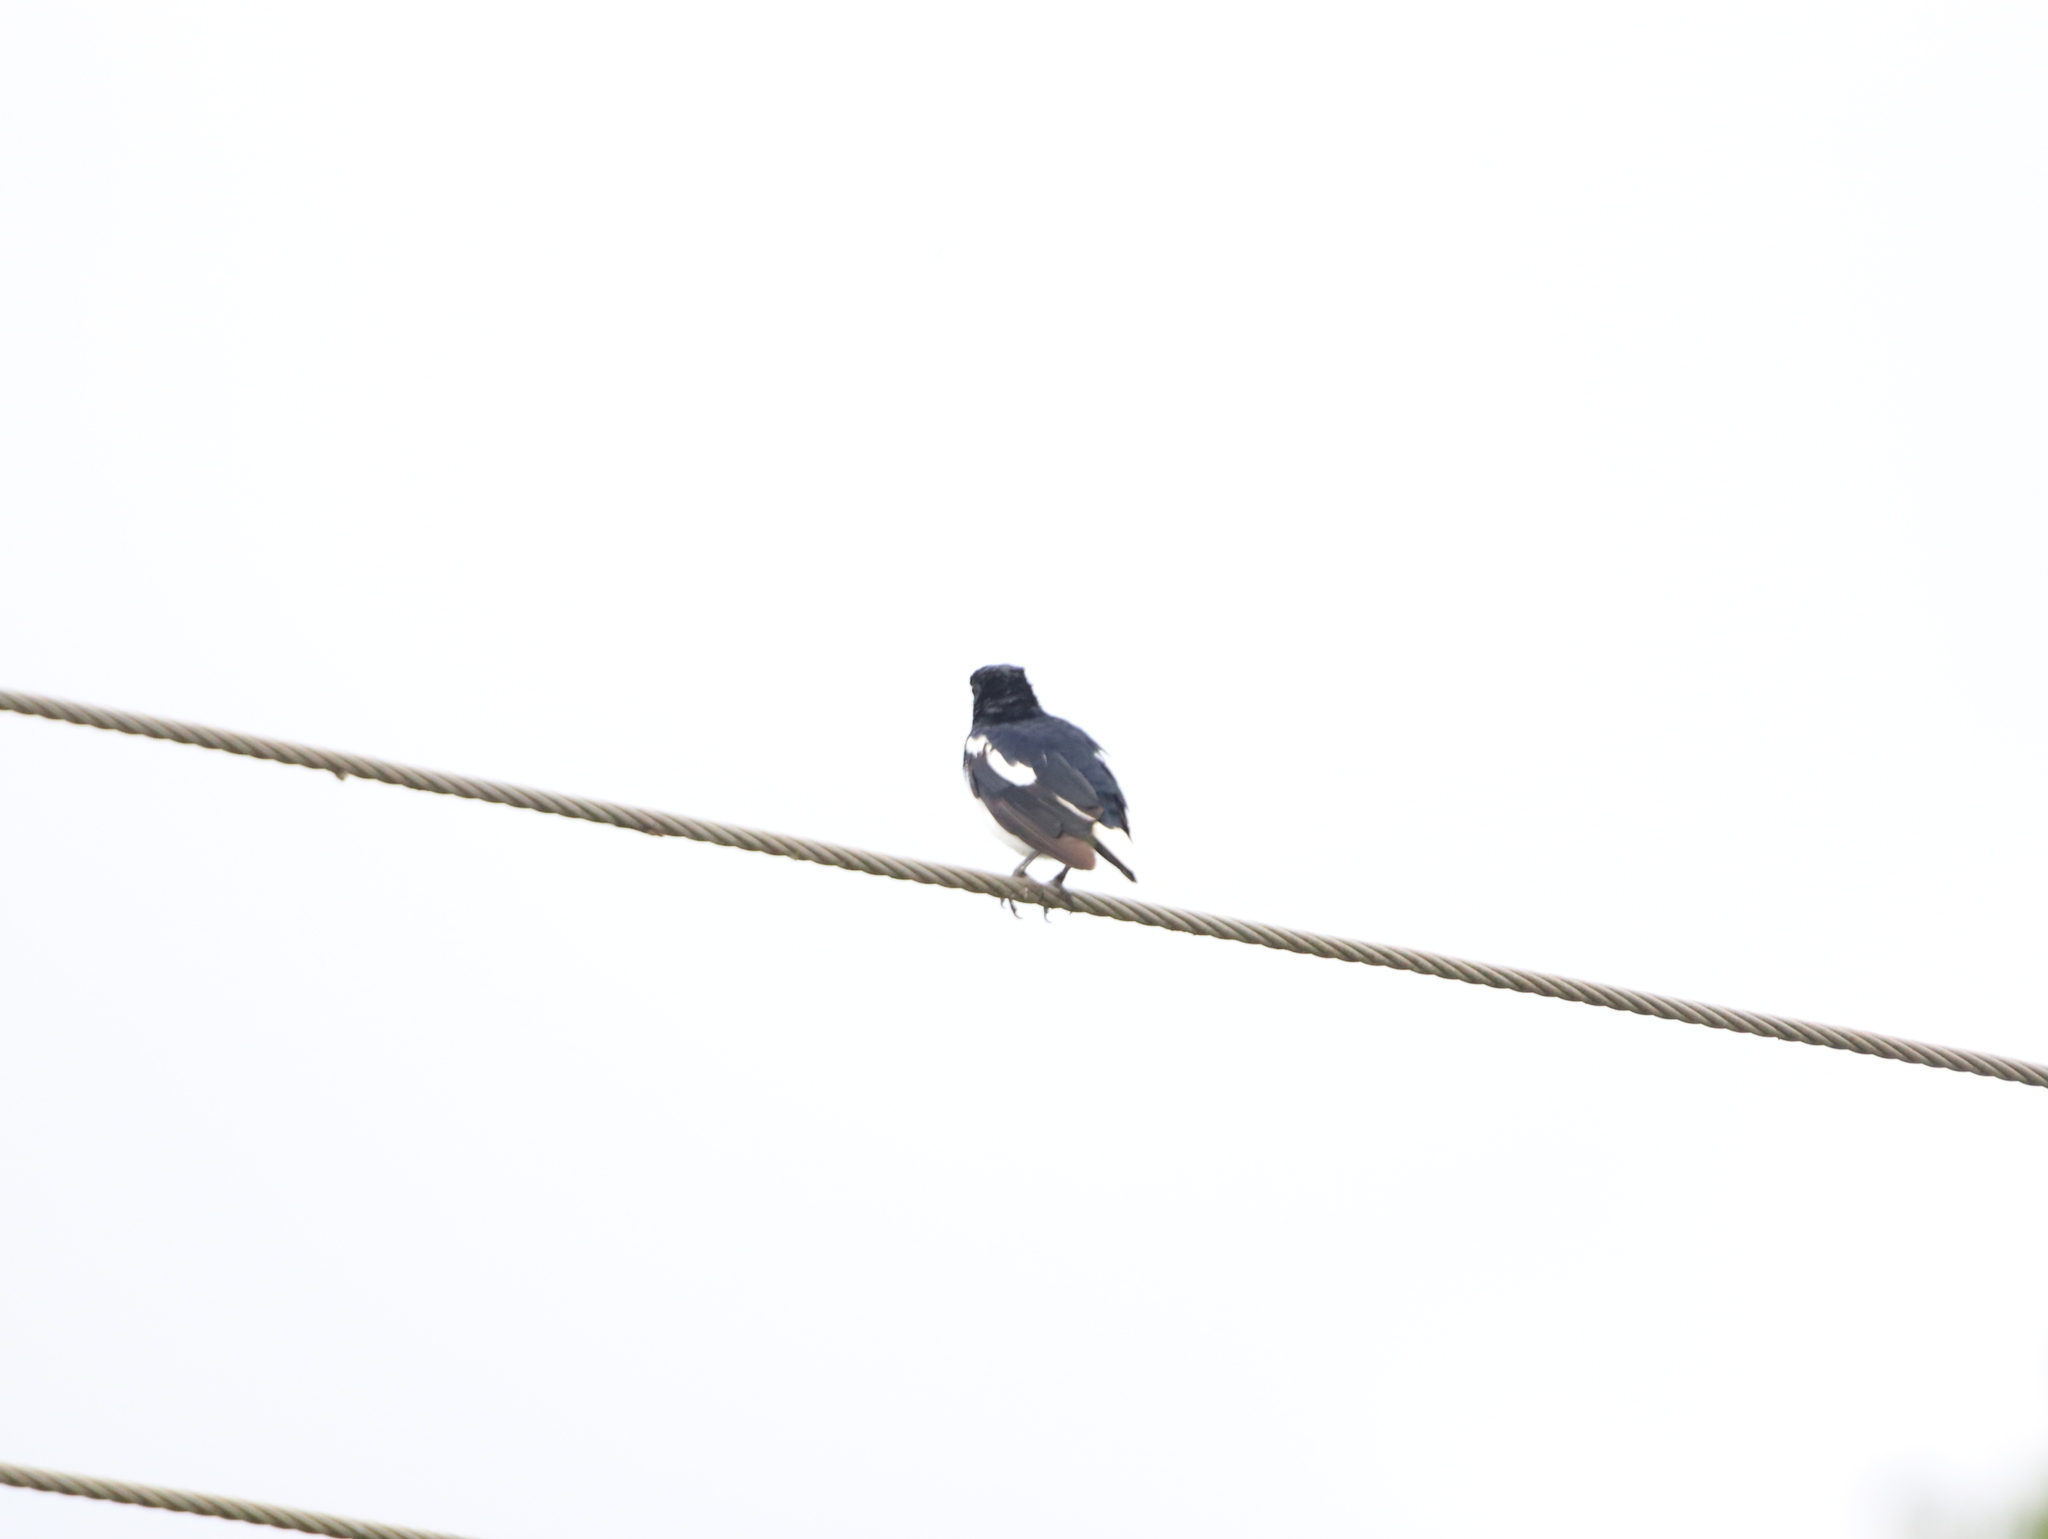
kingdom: Animalia
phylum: Chordata
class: Aves
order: Passeriformes
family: Muscicapidae
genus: Copsychus
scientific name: Copsychus saularis
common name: Oriental magpie-robin
